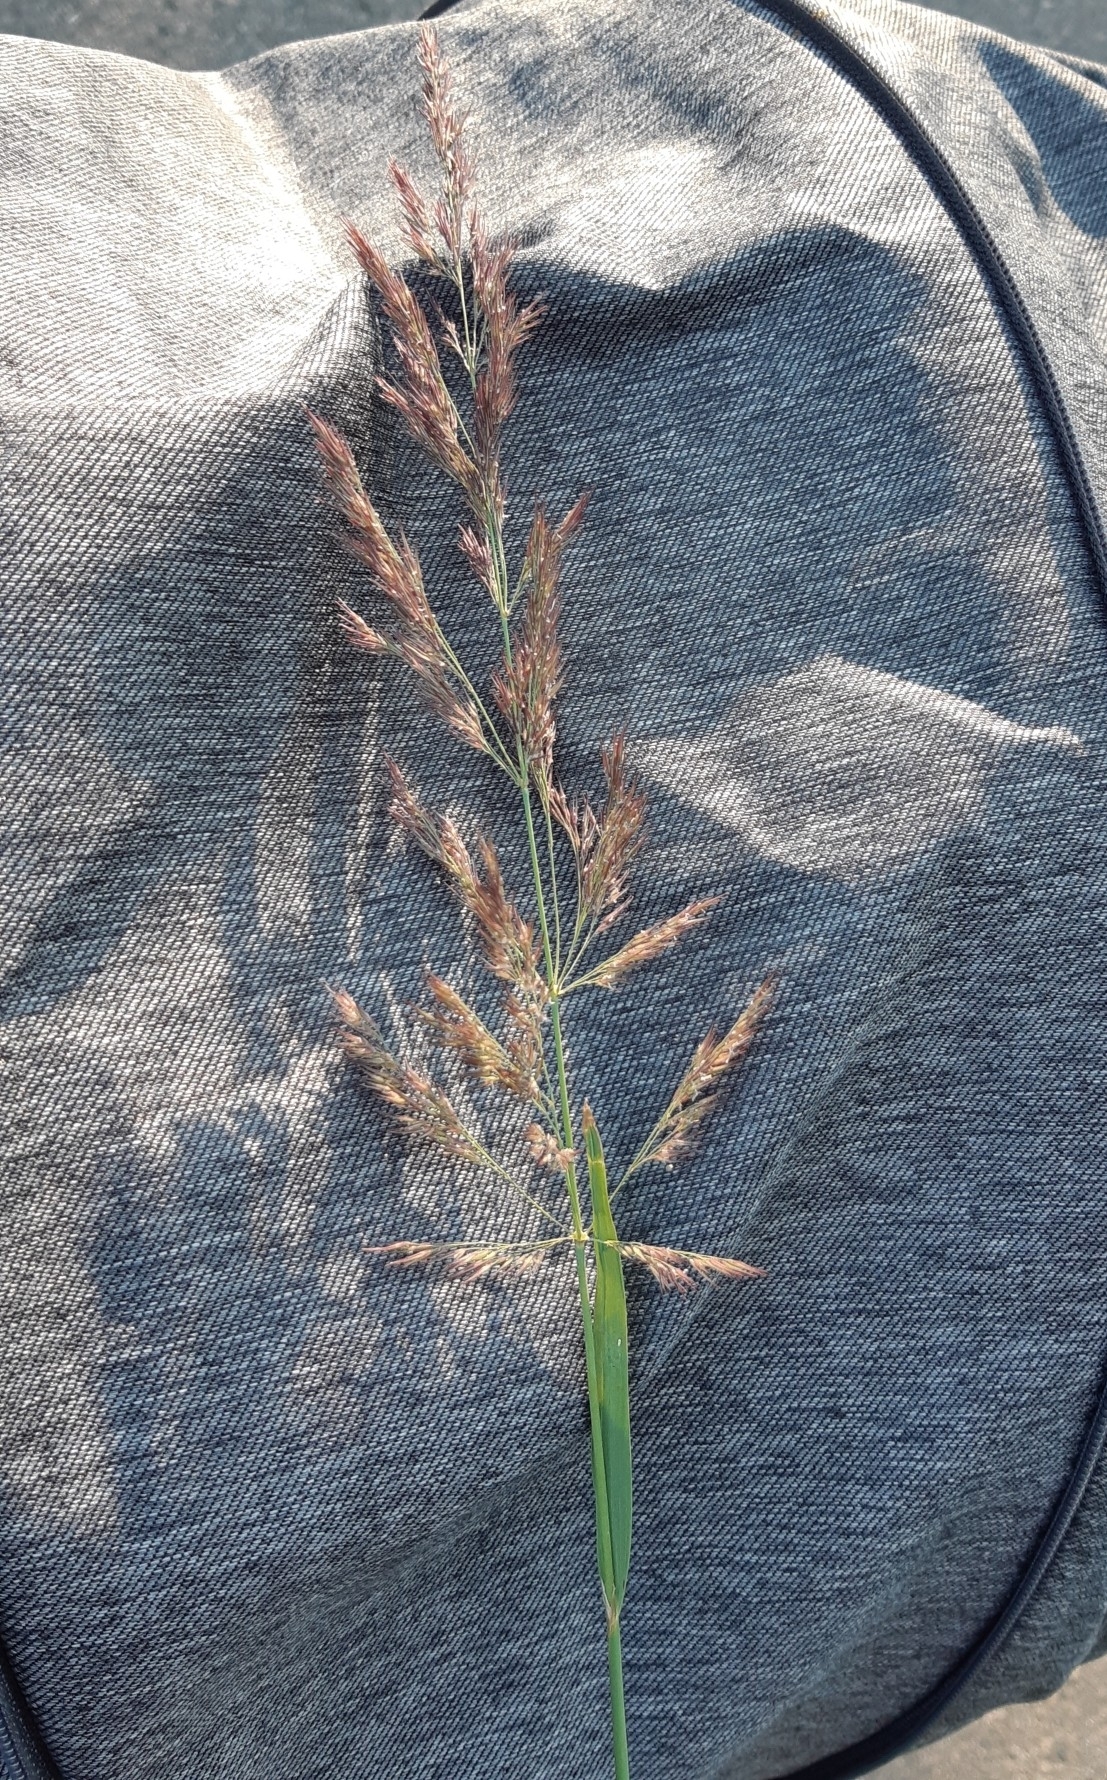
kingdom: Plantae
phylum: Tracheophyta
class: Liliopsida
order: Poales
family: Poaceae
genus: Calamagrostis
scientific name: Calamagrostis epigejos
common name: Wood small-reed
